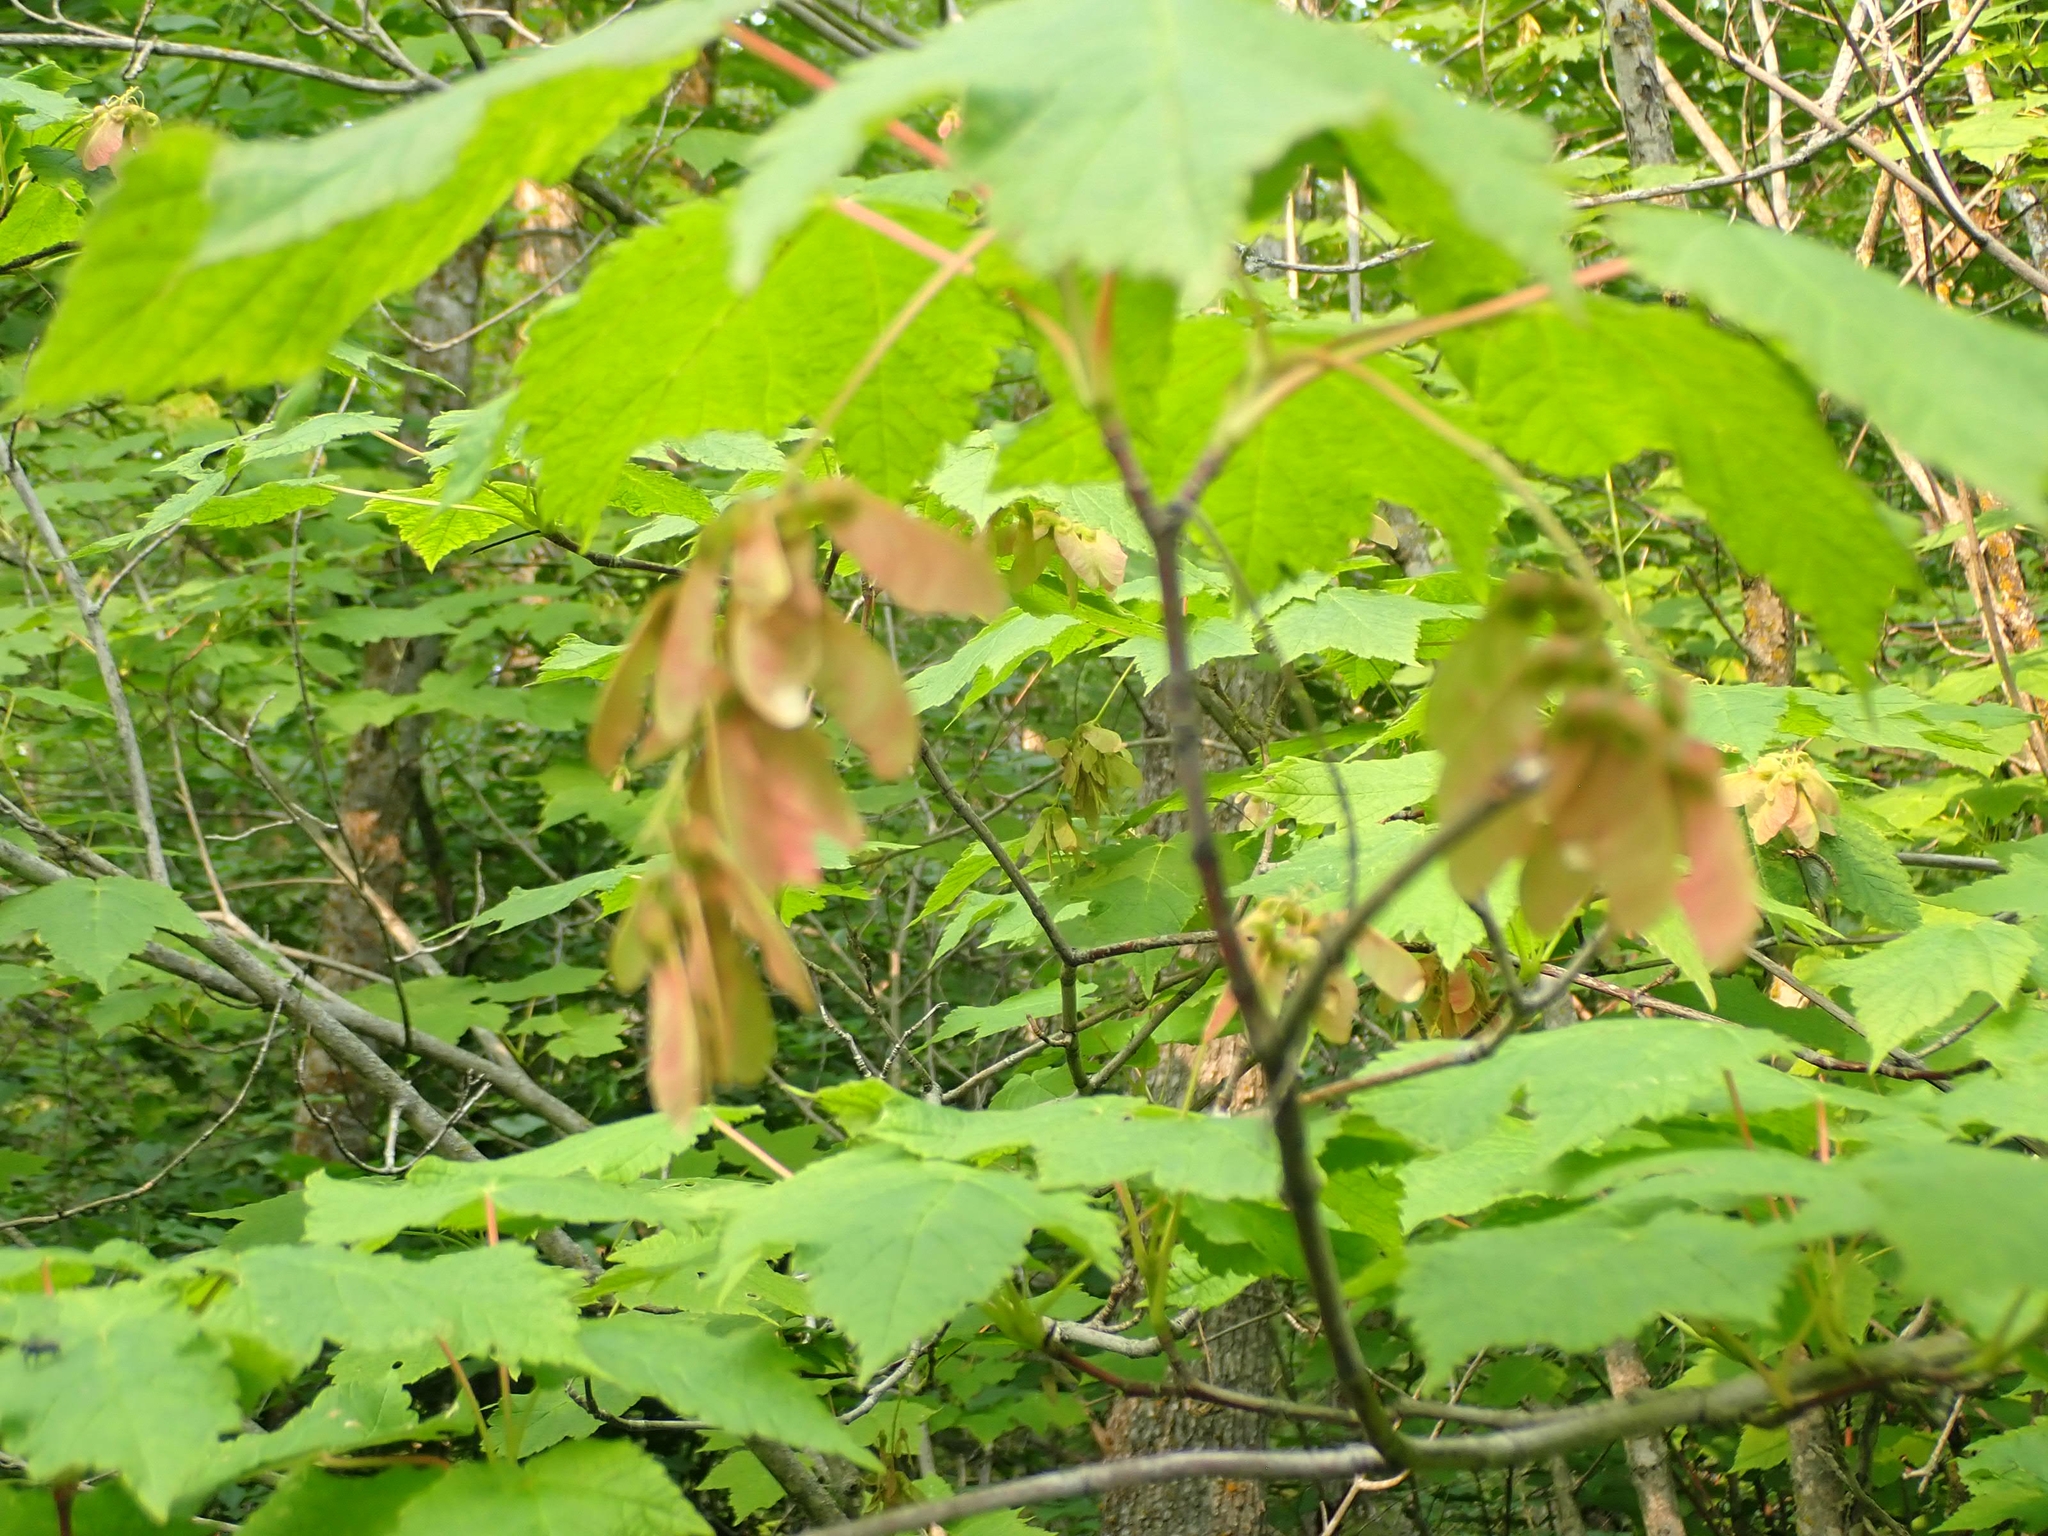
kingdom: Plantae
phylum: Tracheophyta
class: Magnoliopsida
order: Sapindales
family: Sapindaceae
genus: Acer
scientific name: Acer spicatum
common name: Mountain maple
